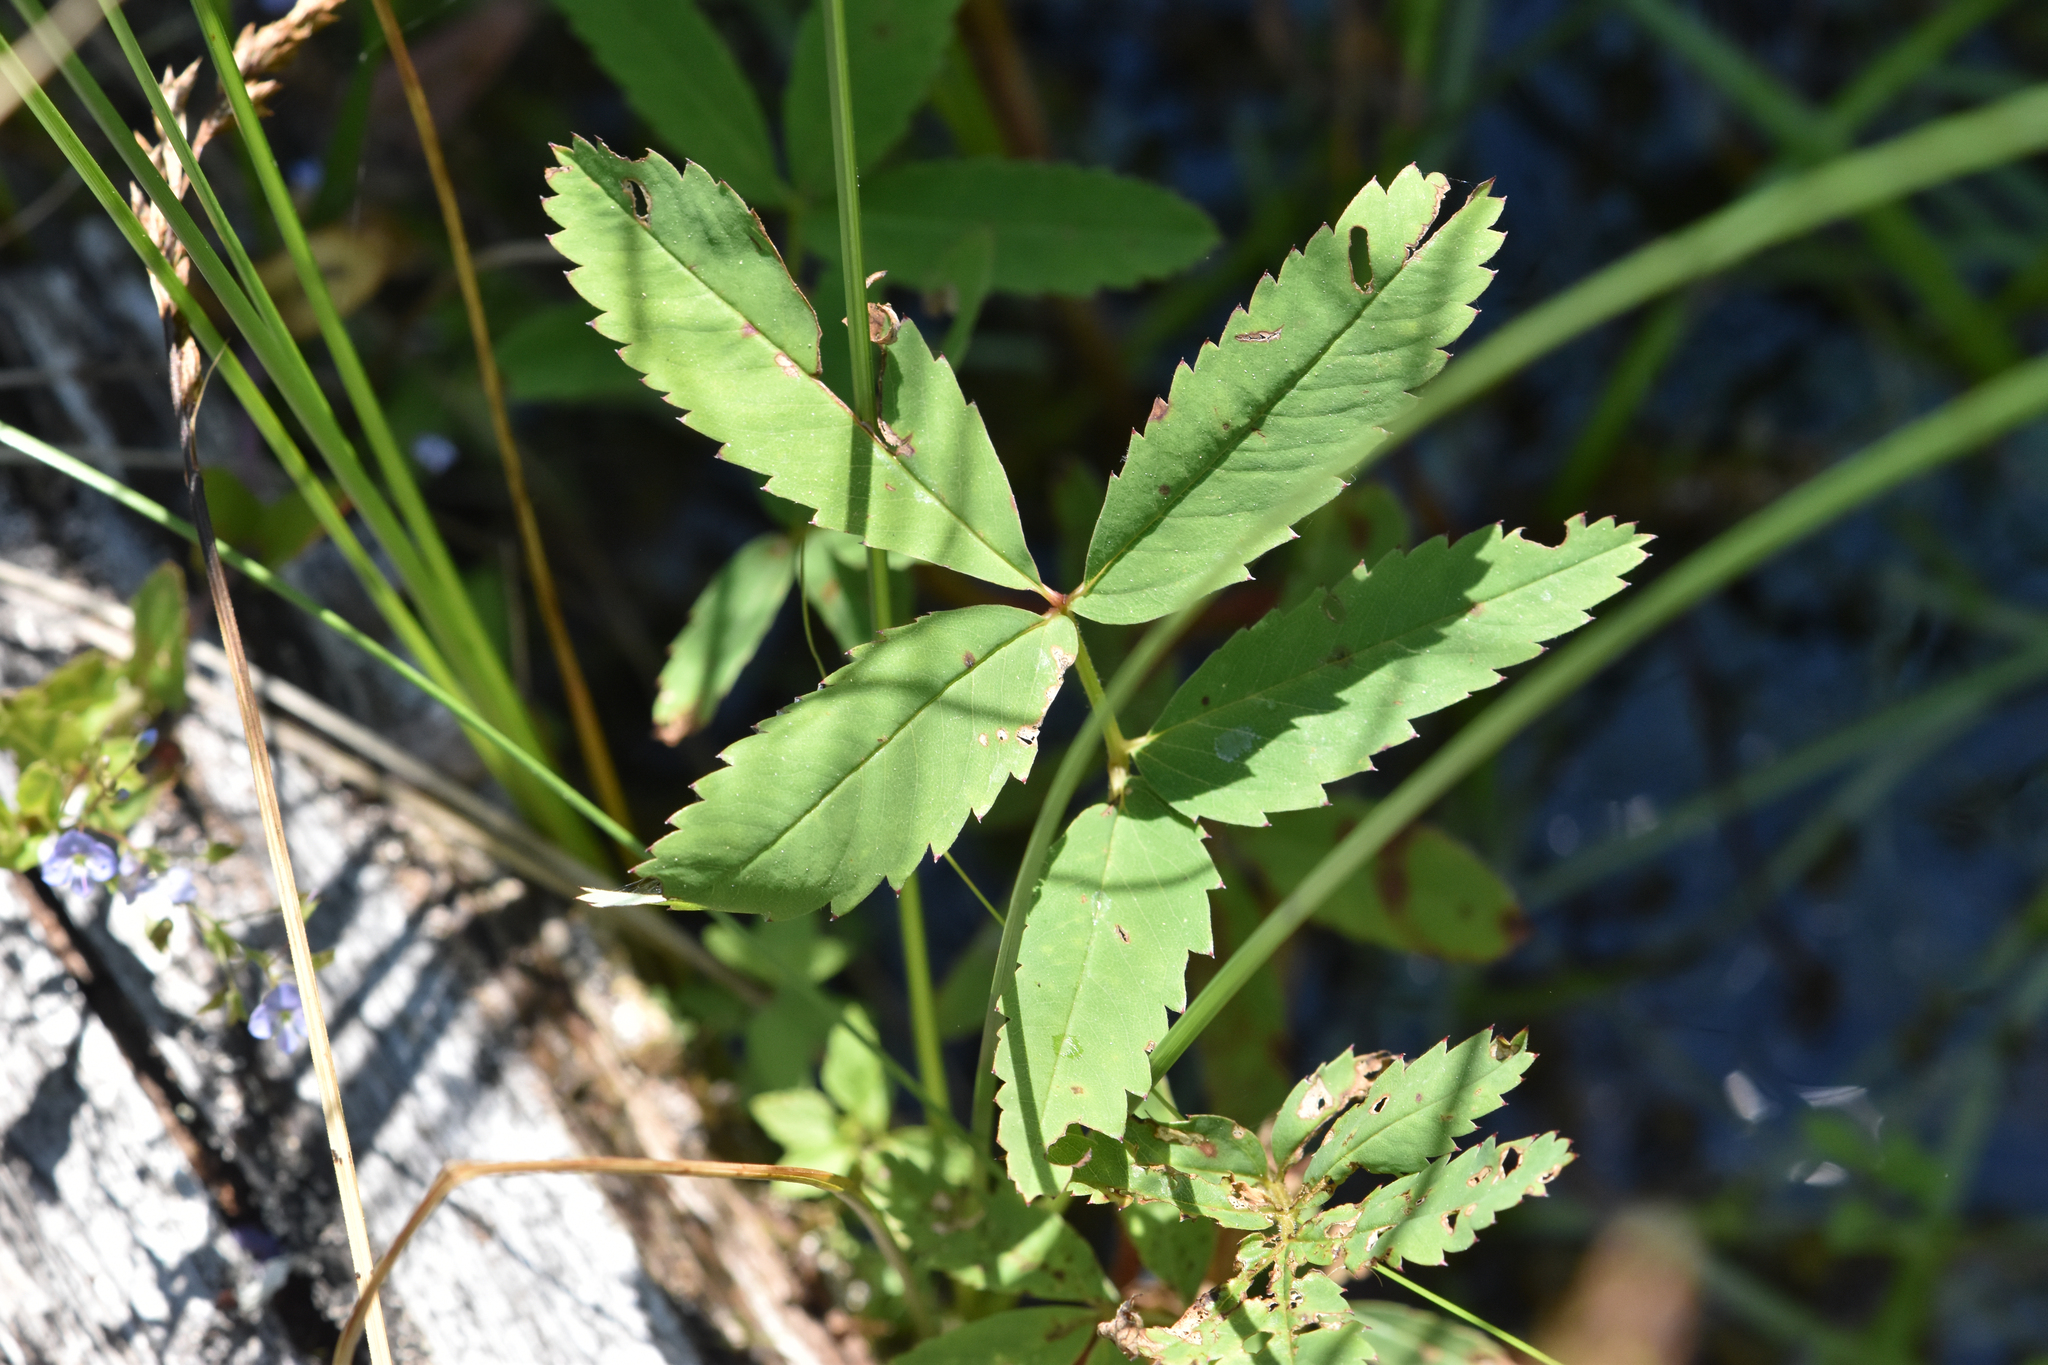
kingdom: Plantae
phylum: Tracheophyta
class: Magnoliopsida
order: Rosales
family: Rosaceae
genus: Comarum
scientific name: Comarum palustre
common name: Marsh cinquefoil
